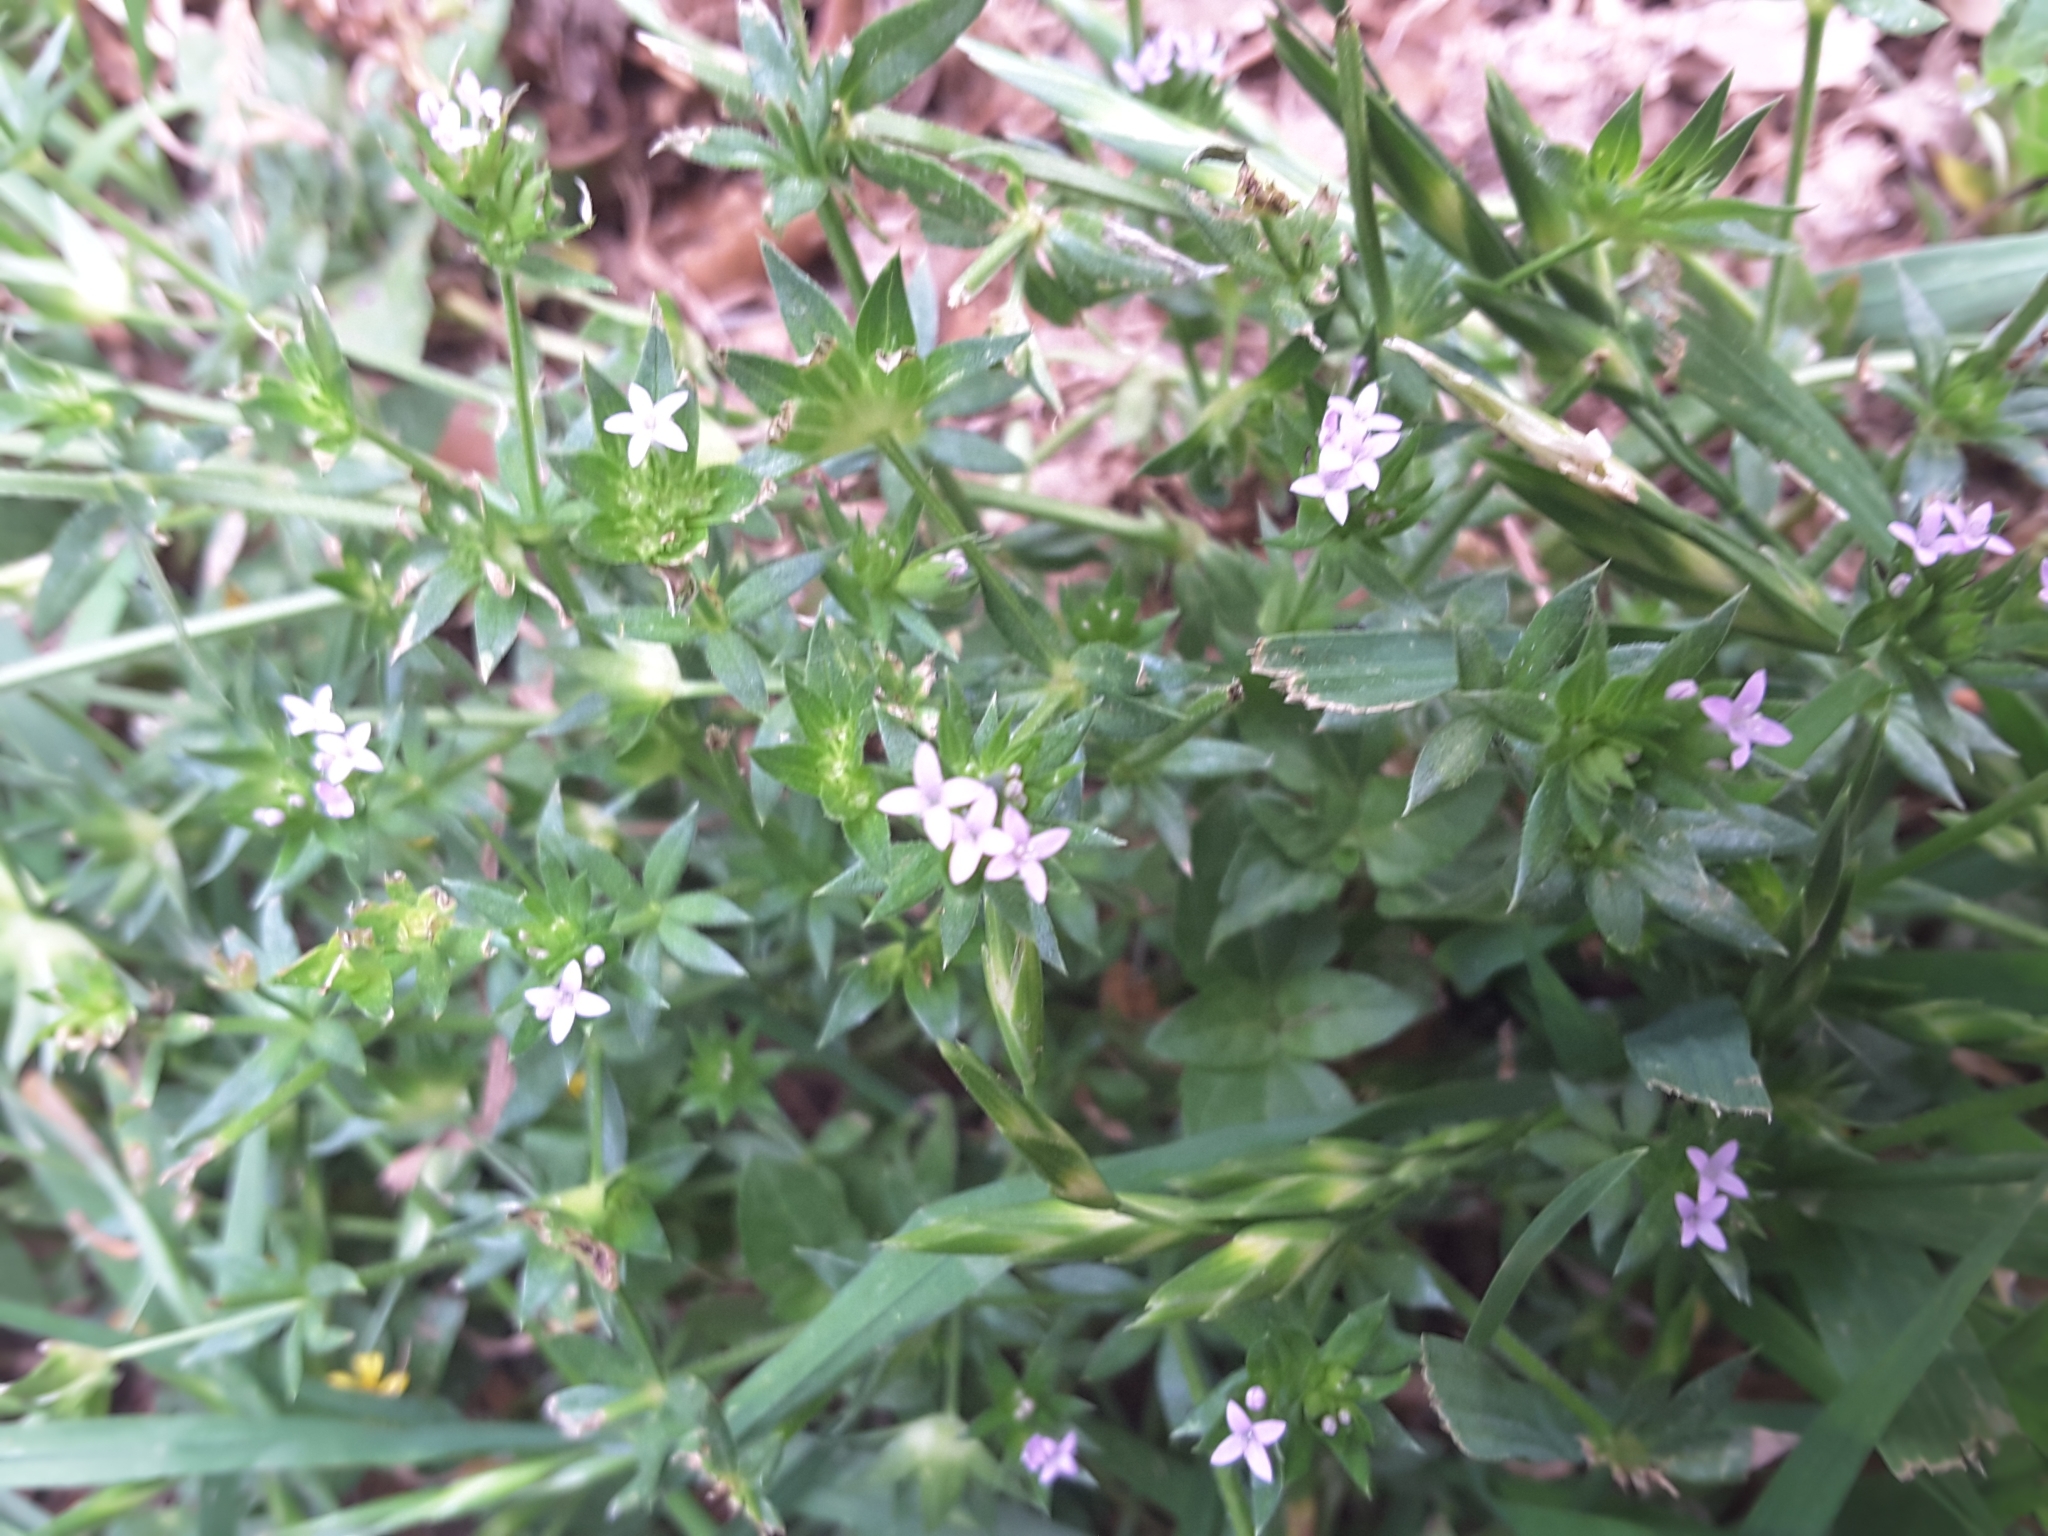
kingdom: Plantae
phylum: Tracheophyta
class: Magnoliopsida
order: Gentianales
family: Rubiaceae
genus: Sherardia
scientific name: Sherardia arvensis
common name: Field madder
